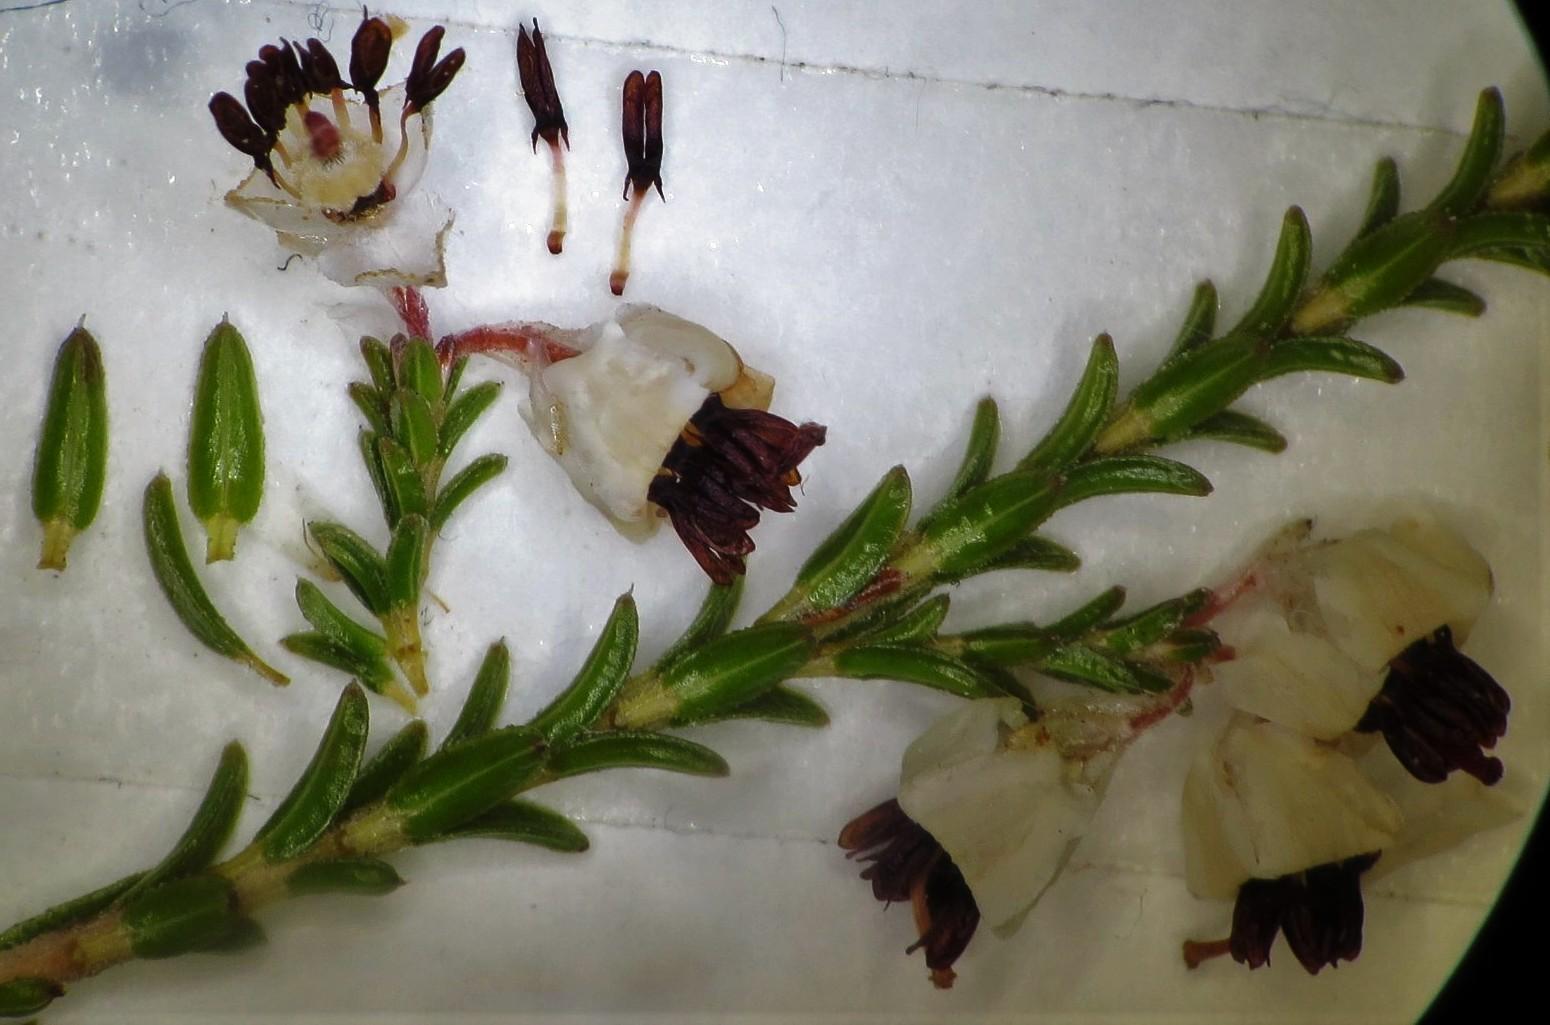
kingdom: Plantae
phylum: Tracheophyta
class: Magnoliopsida
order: Ericales
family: Ericaceae
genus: Erica
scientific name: Erica calycina
